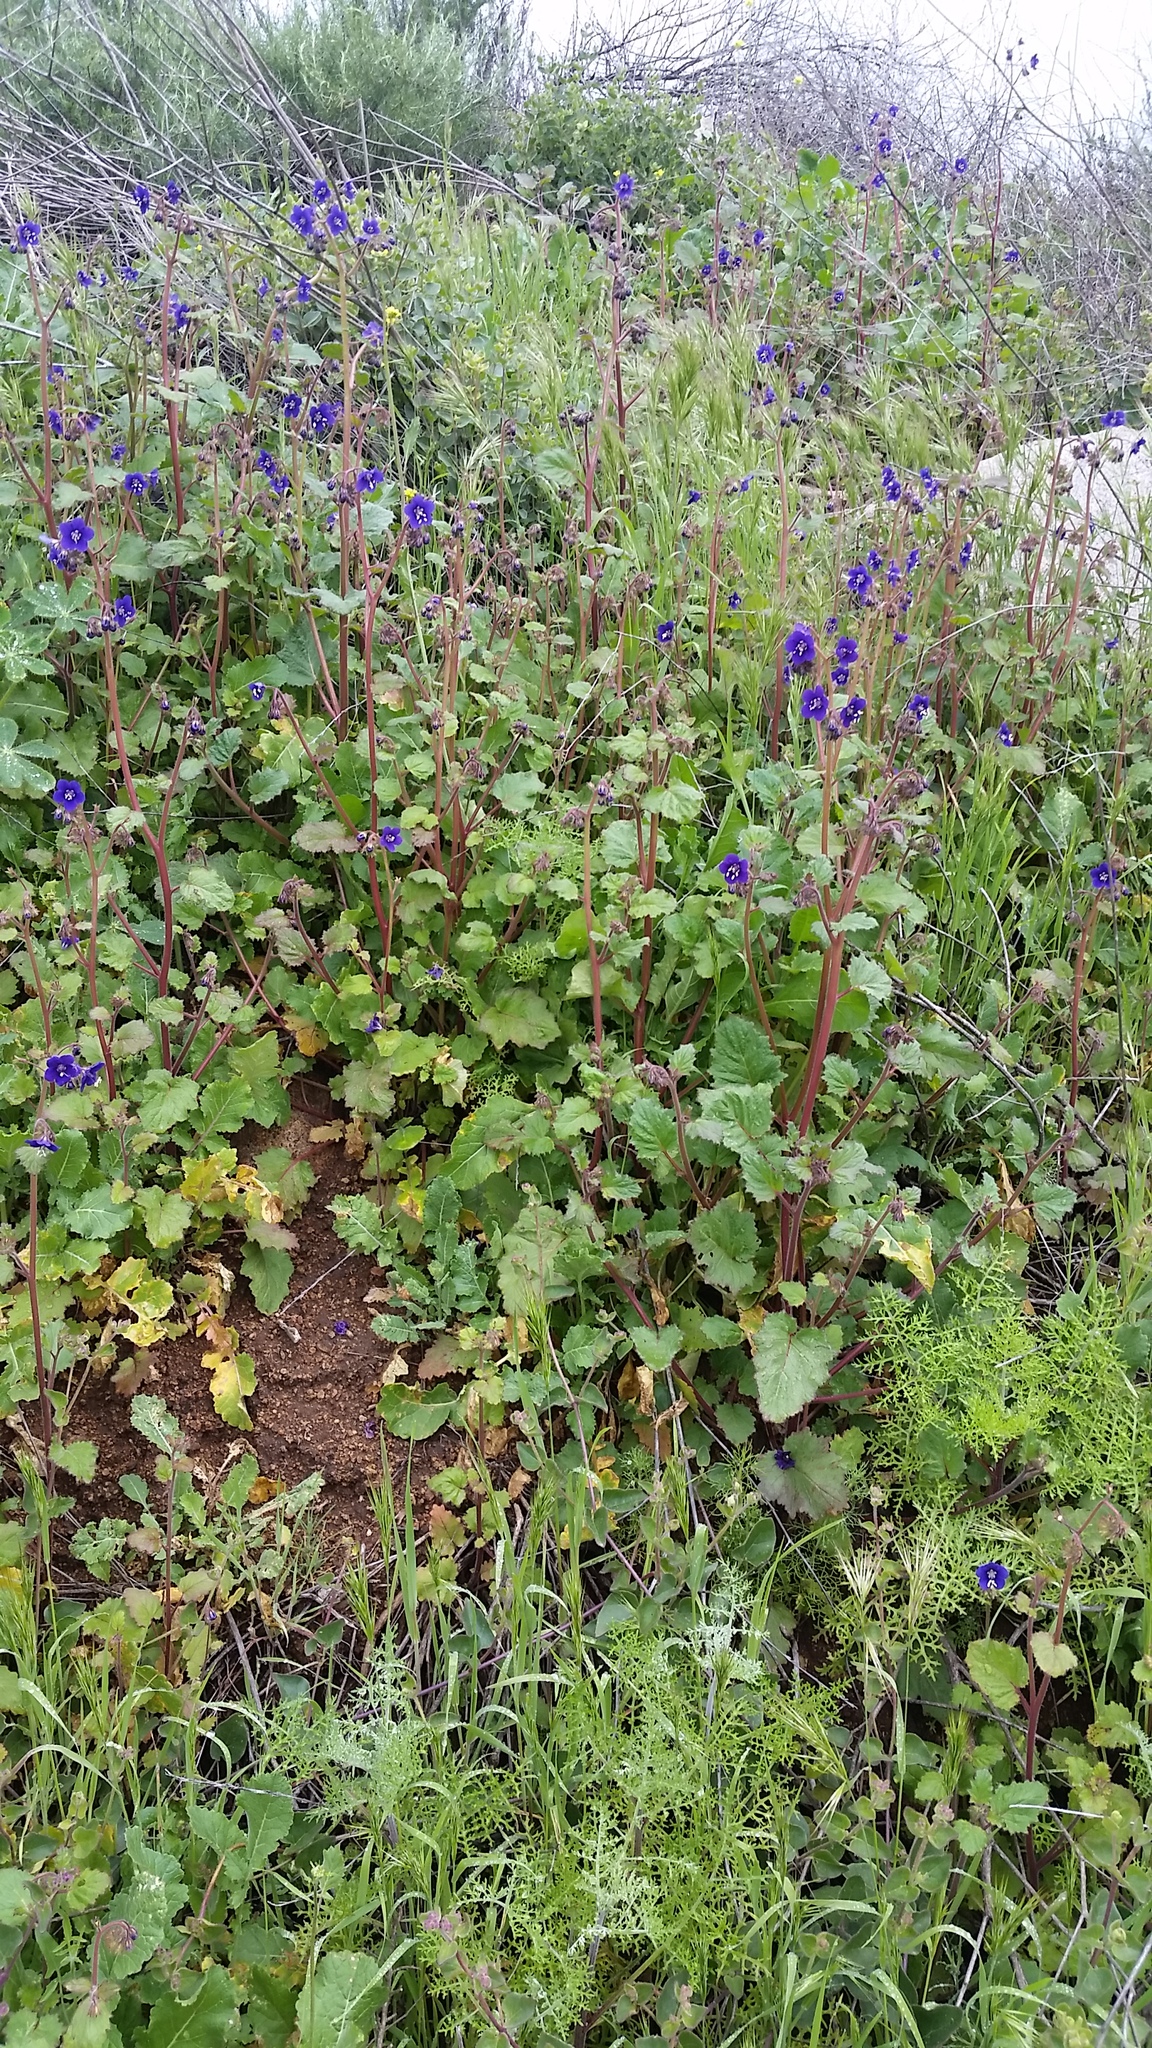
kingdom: Plantae
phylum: Tracheophyta
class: Magnoliopsida
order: Boraginales
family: Hydrophyllaceae
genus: Phacelia
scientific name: Phacelia parryi
